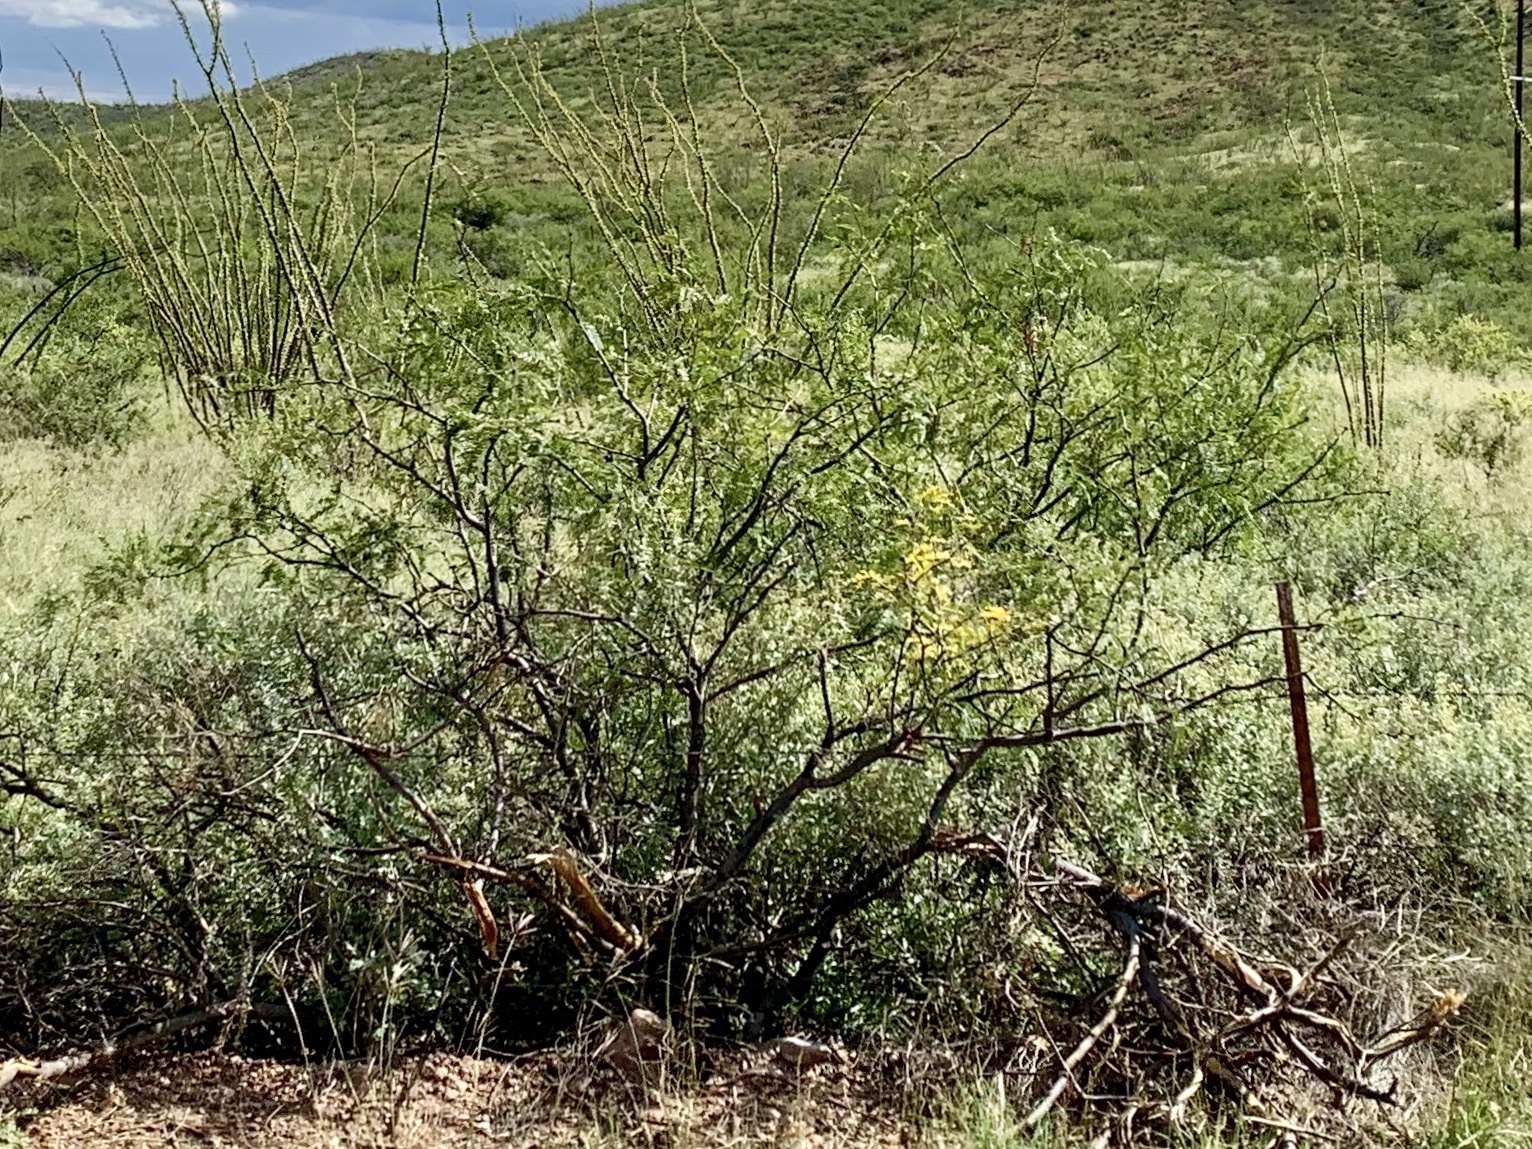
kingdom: Plantae
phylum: Tracheophyta
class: Magnoliopsida
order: Fabales
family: Fabaceae
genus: Vachellia
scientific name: Vachellia constricta
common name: Mescat acacia
